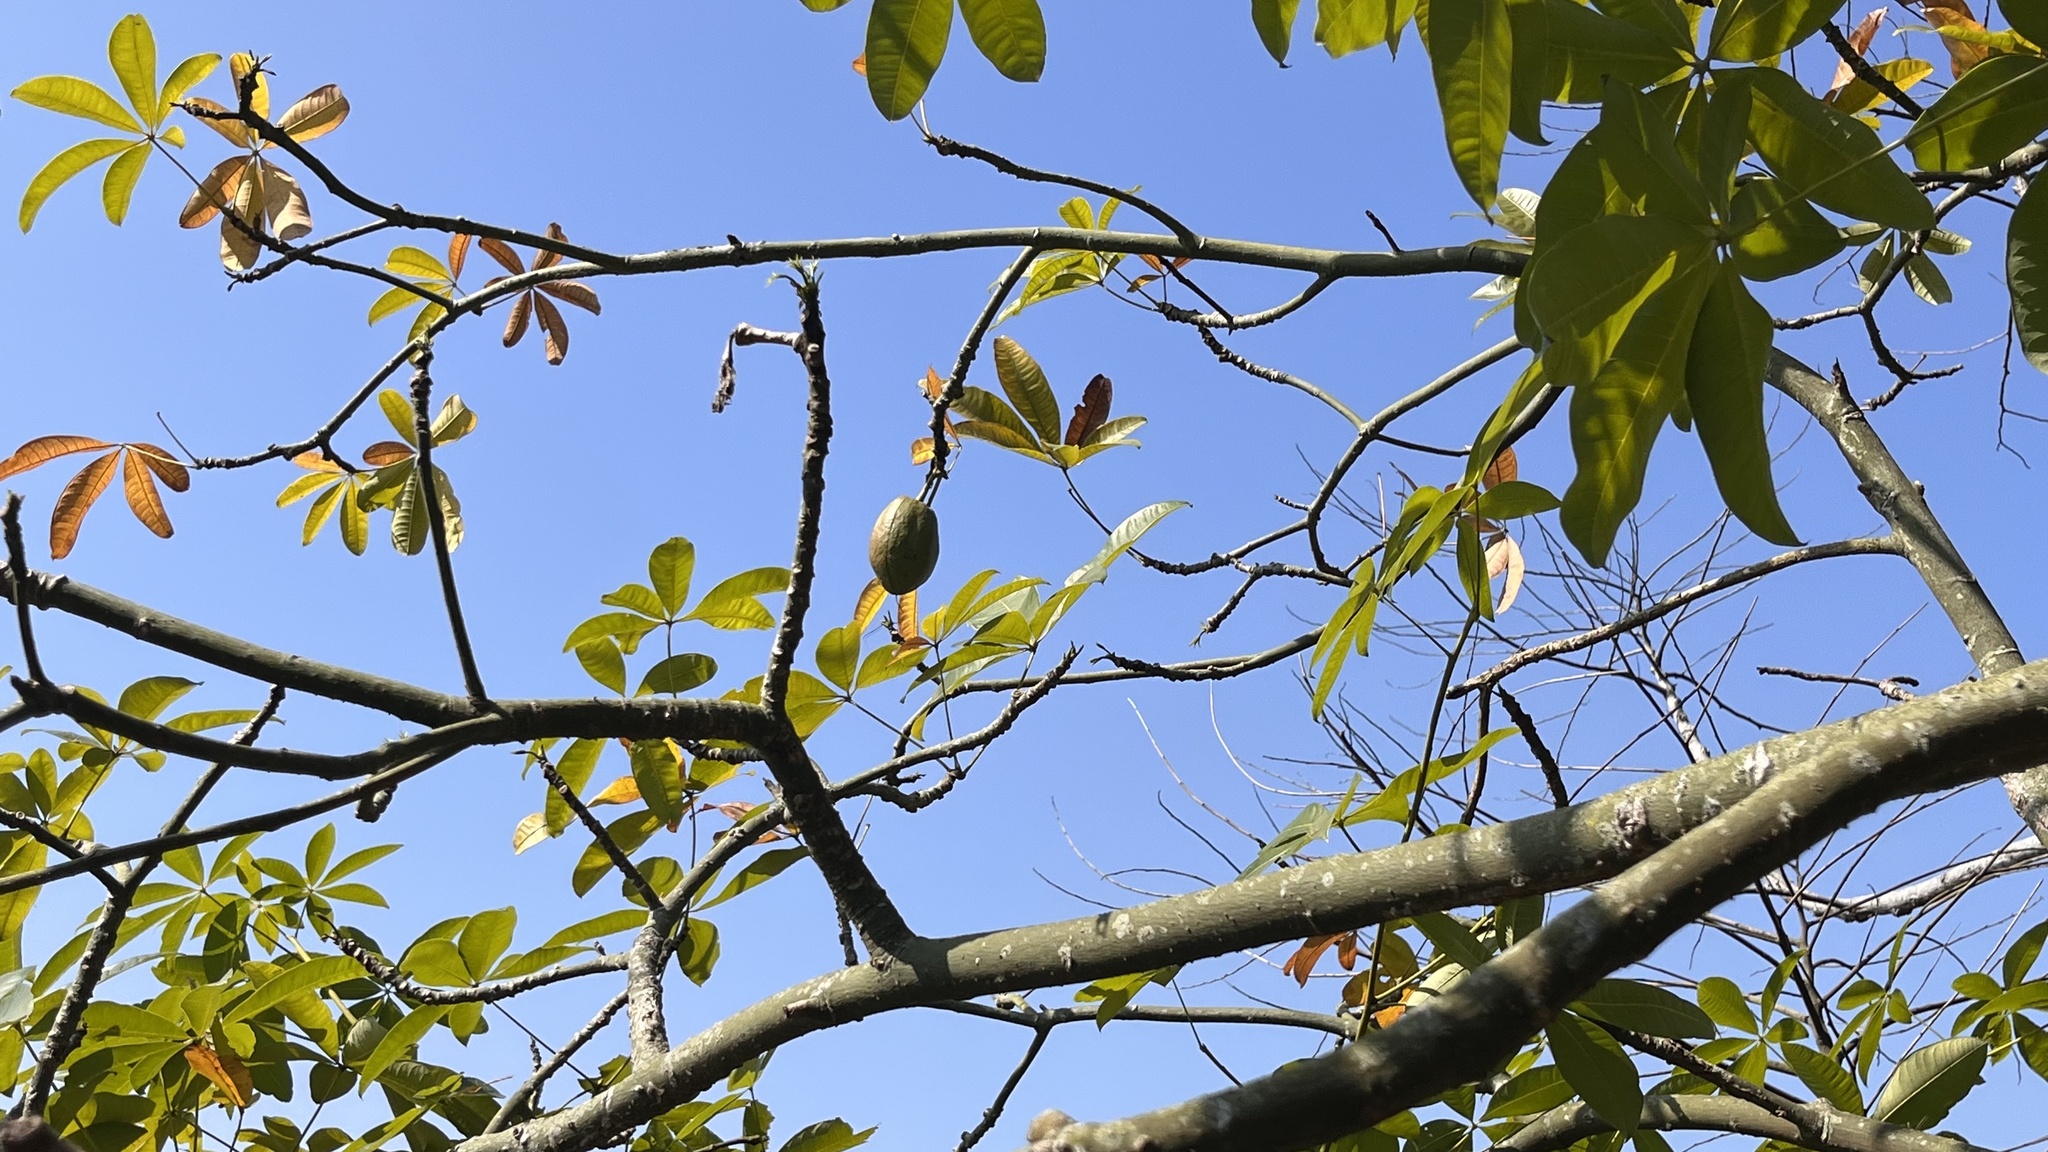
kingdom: Plantae
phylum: Tracheophyta
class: Magnoliopsida
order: Malvales
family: Malvaceae
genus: Pachira
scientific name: Pachira glabra
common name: Moneytree
